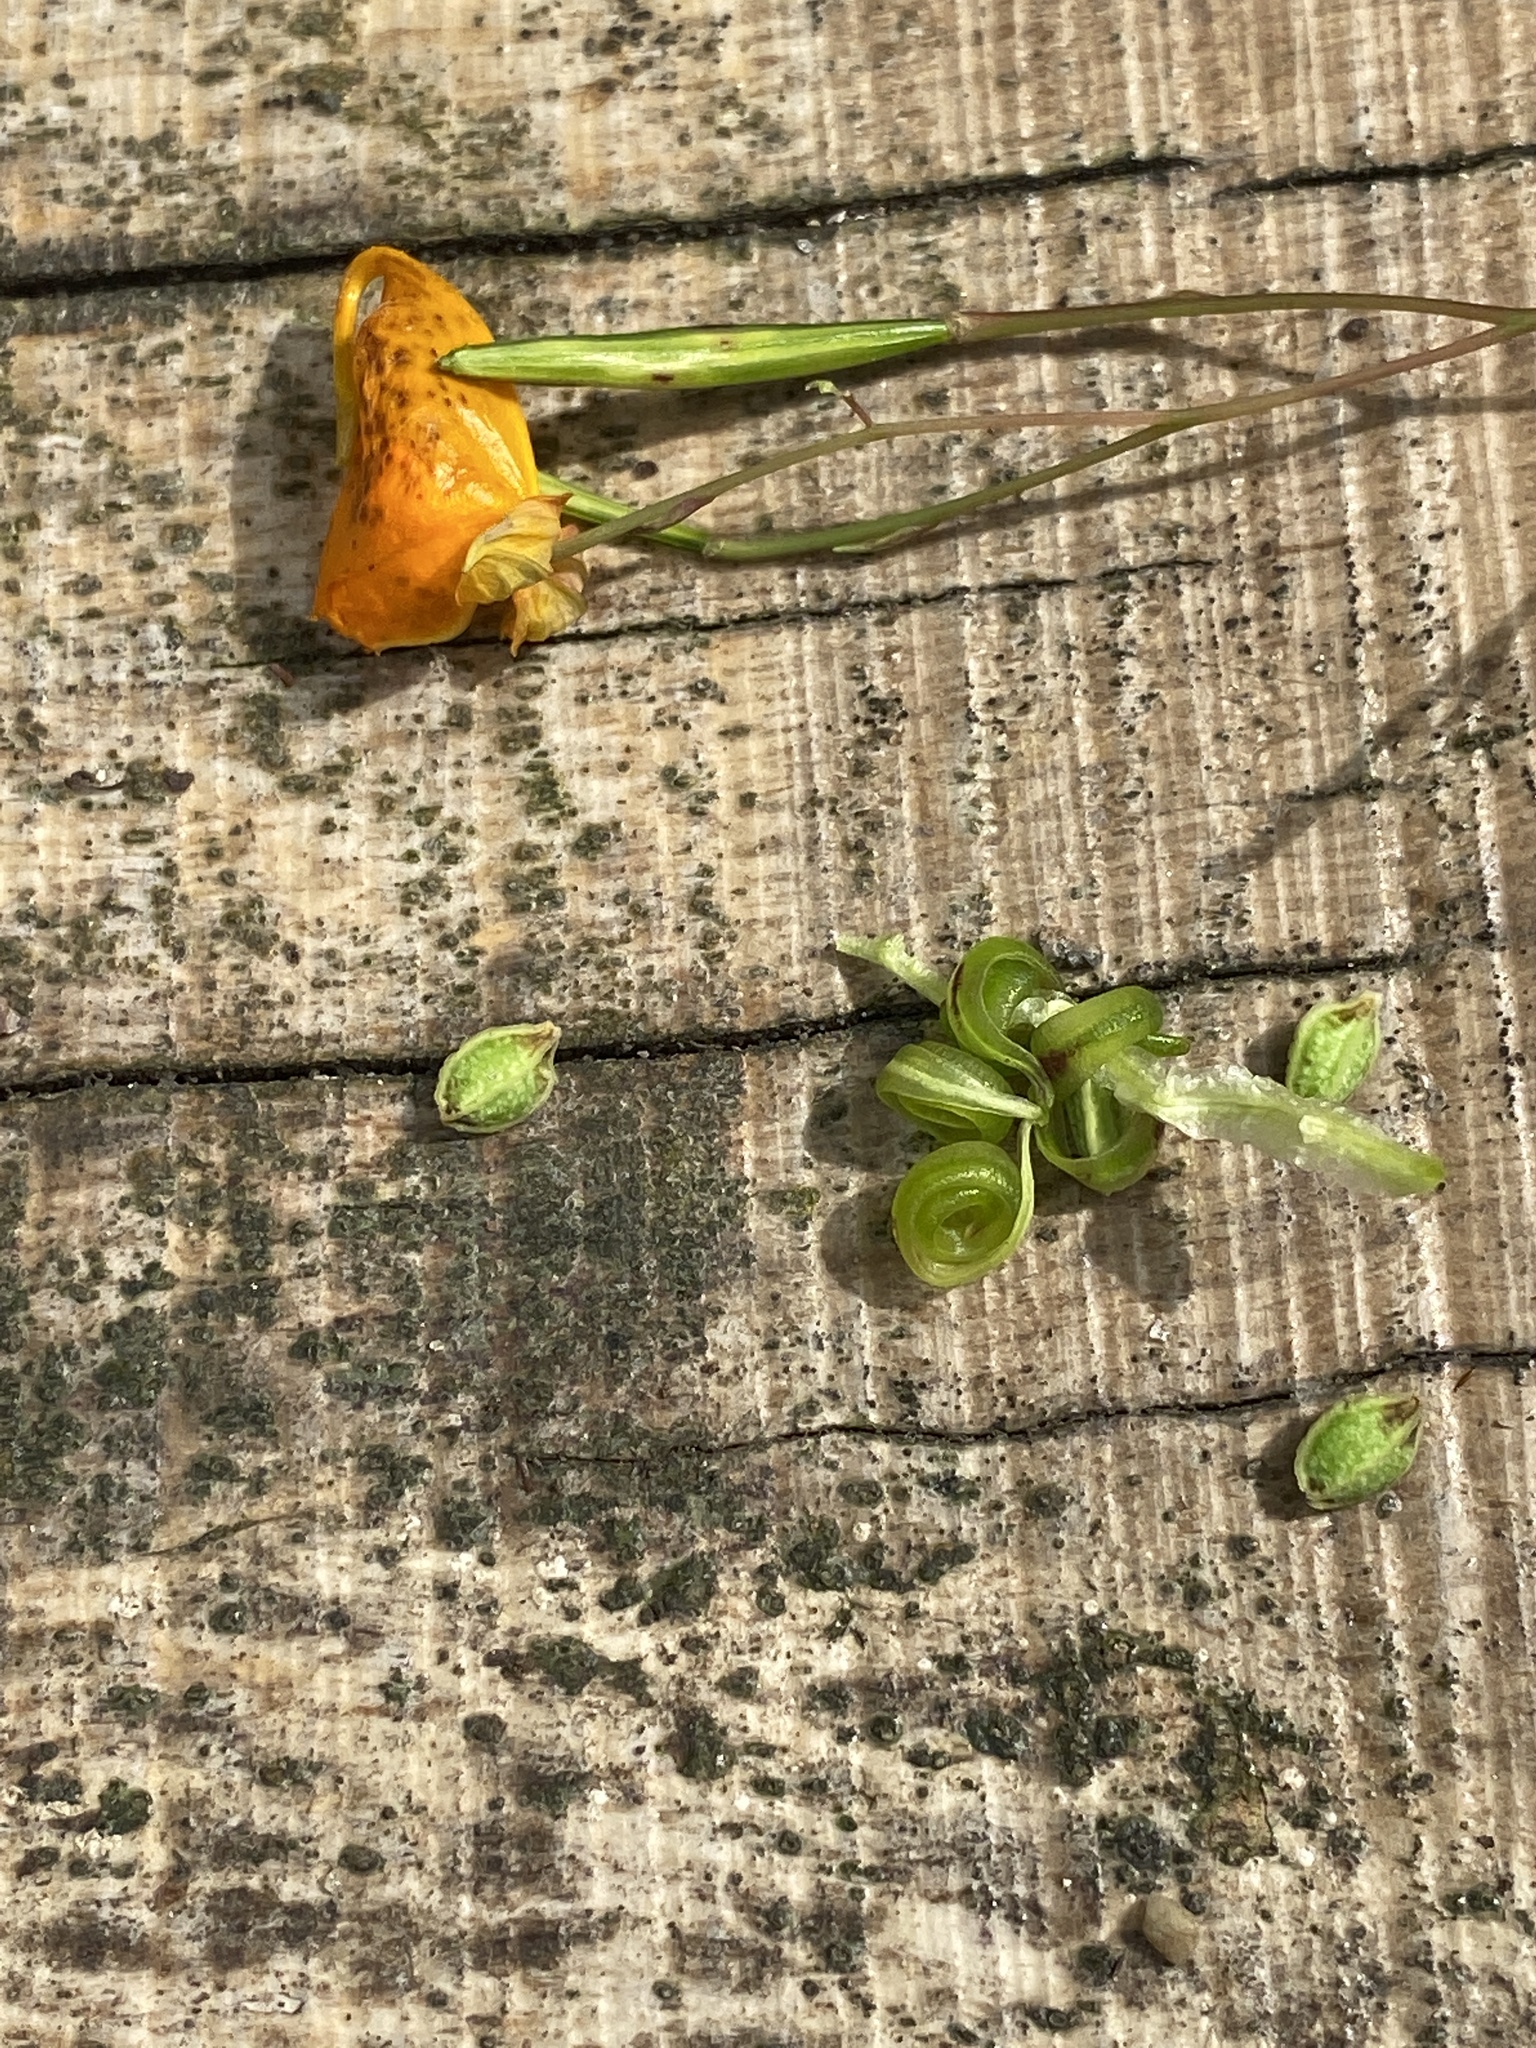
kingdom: Plantae
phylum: Tracheophyta
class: Magnoliopsida
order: Ericales
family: Balsaminaceae
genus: Impatiens
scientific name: Impatiens capensis
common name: Orange balsam
